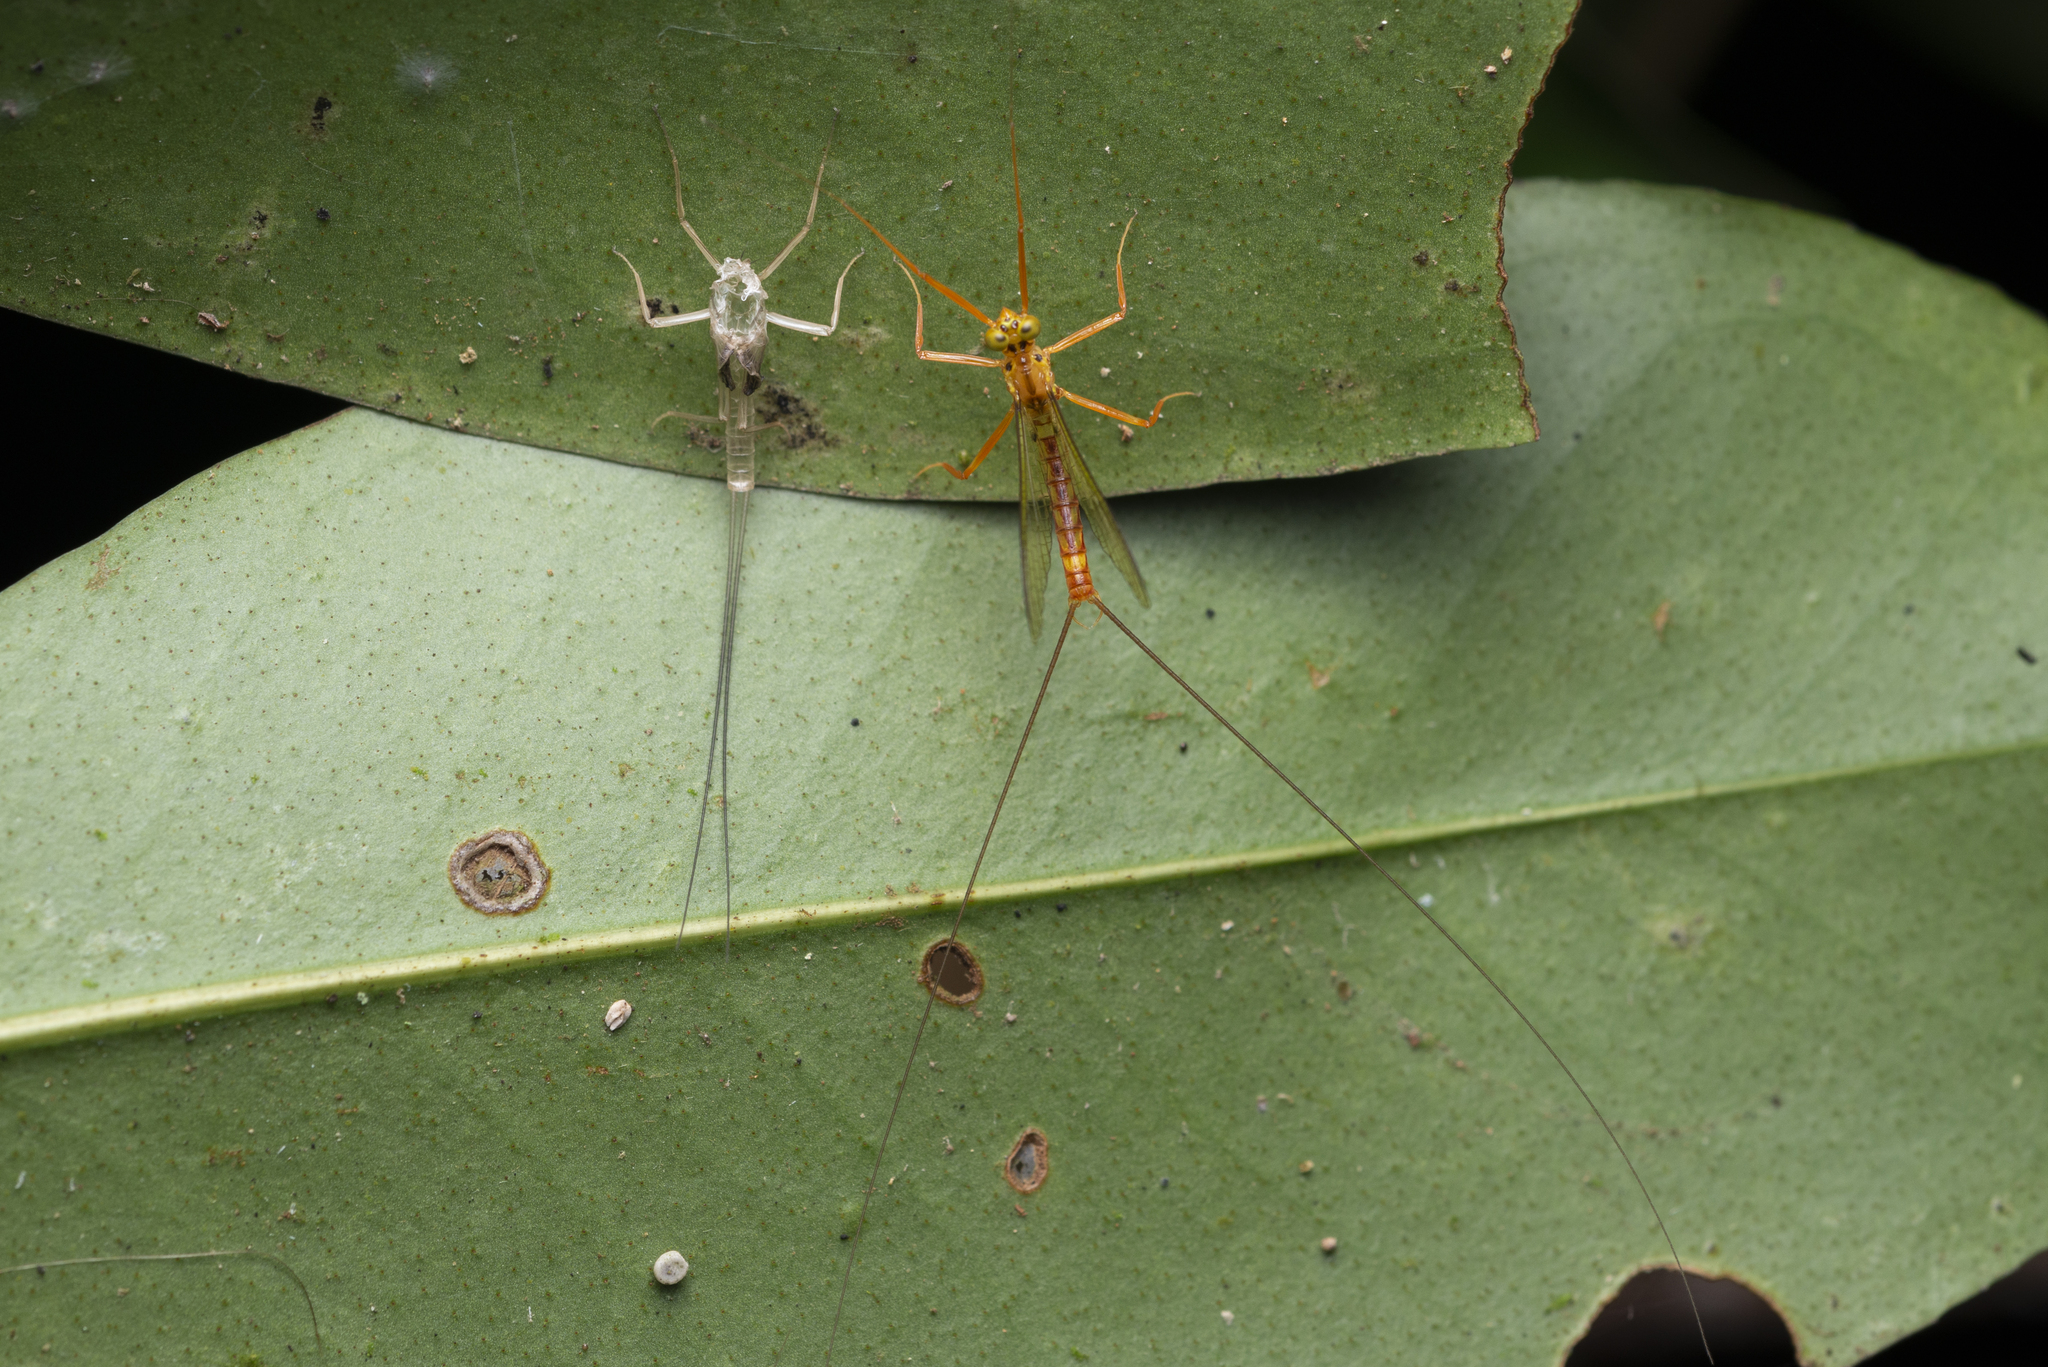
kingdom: Animalia
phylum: Arthropoda
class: Insecta
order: Ephemeroptera
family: Heptageniidae
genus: Paegniodes
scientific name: Paegniodes cupulatus
